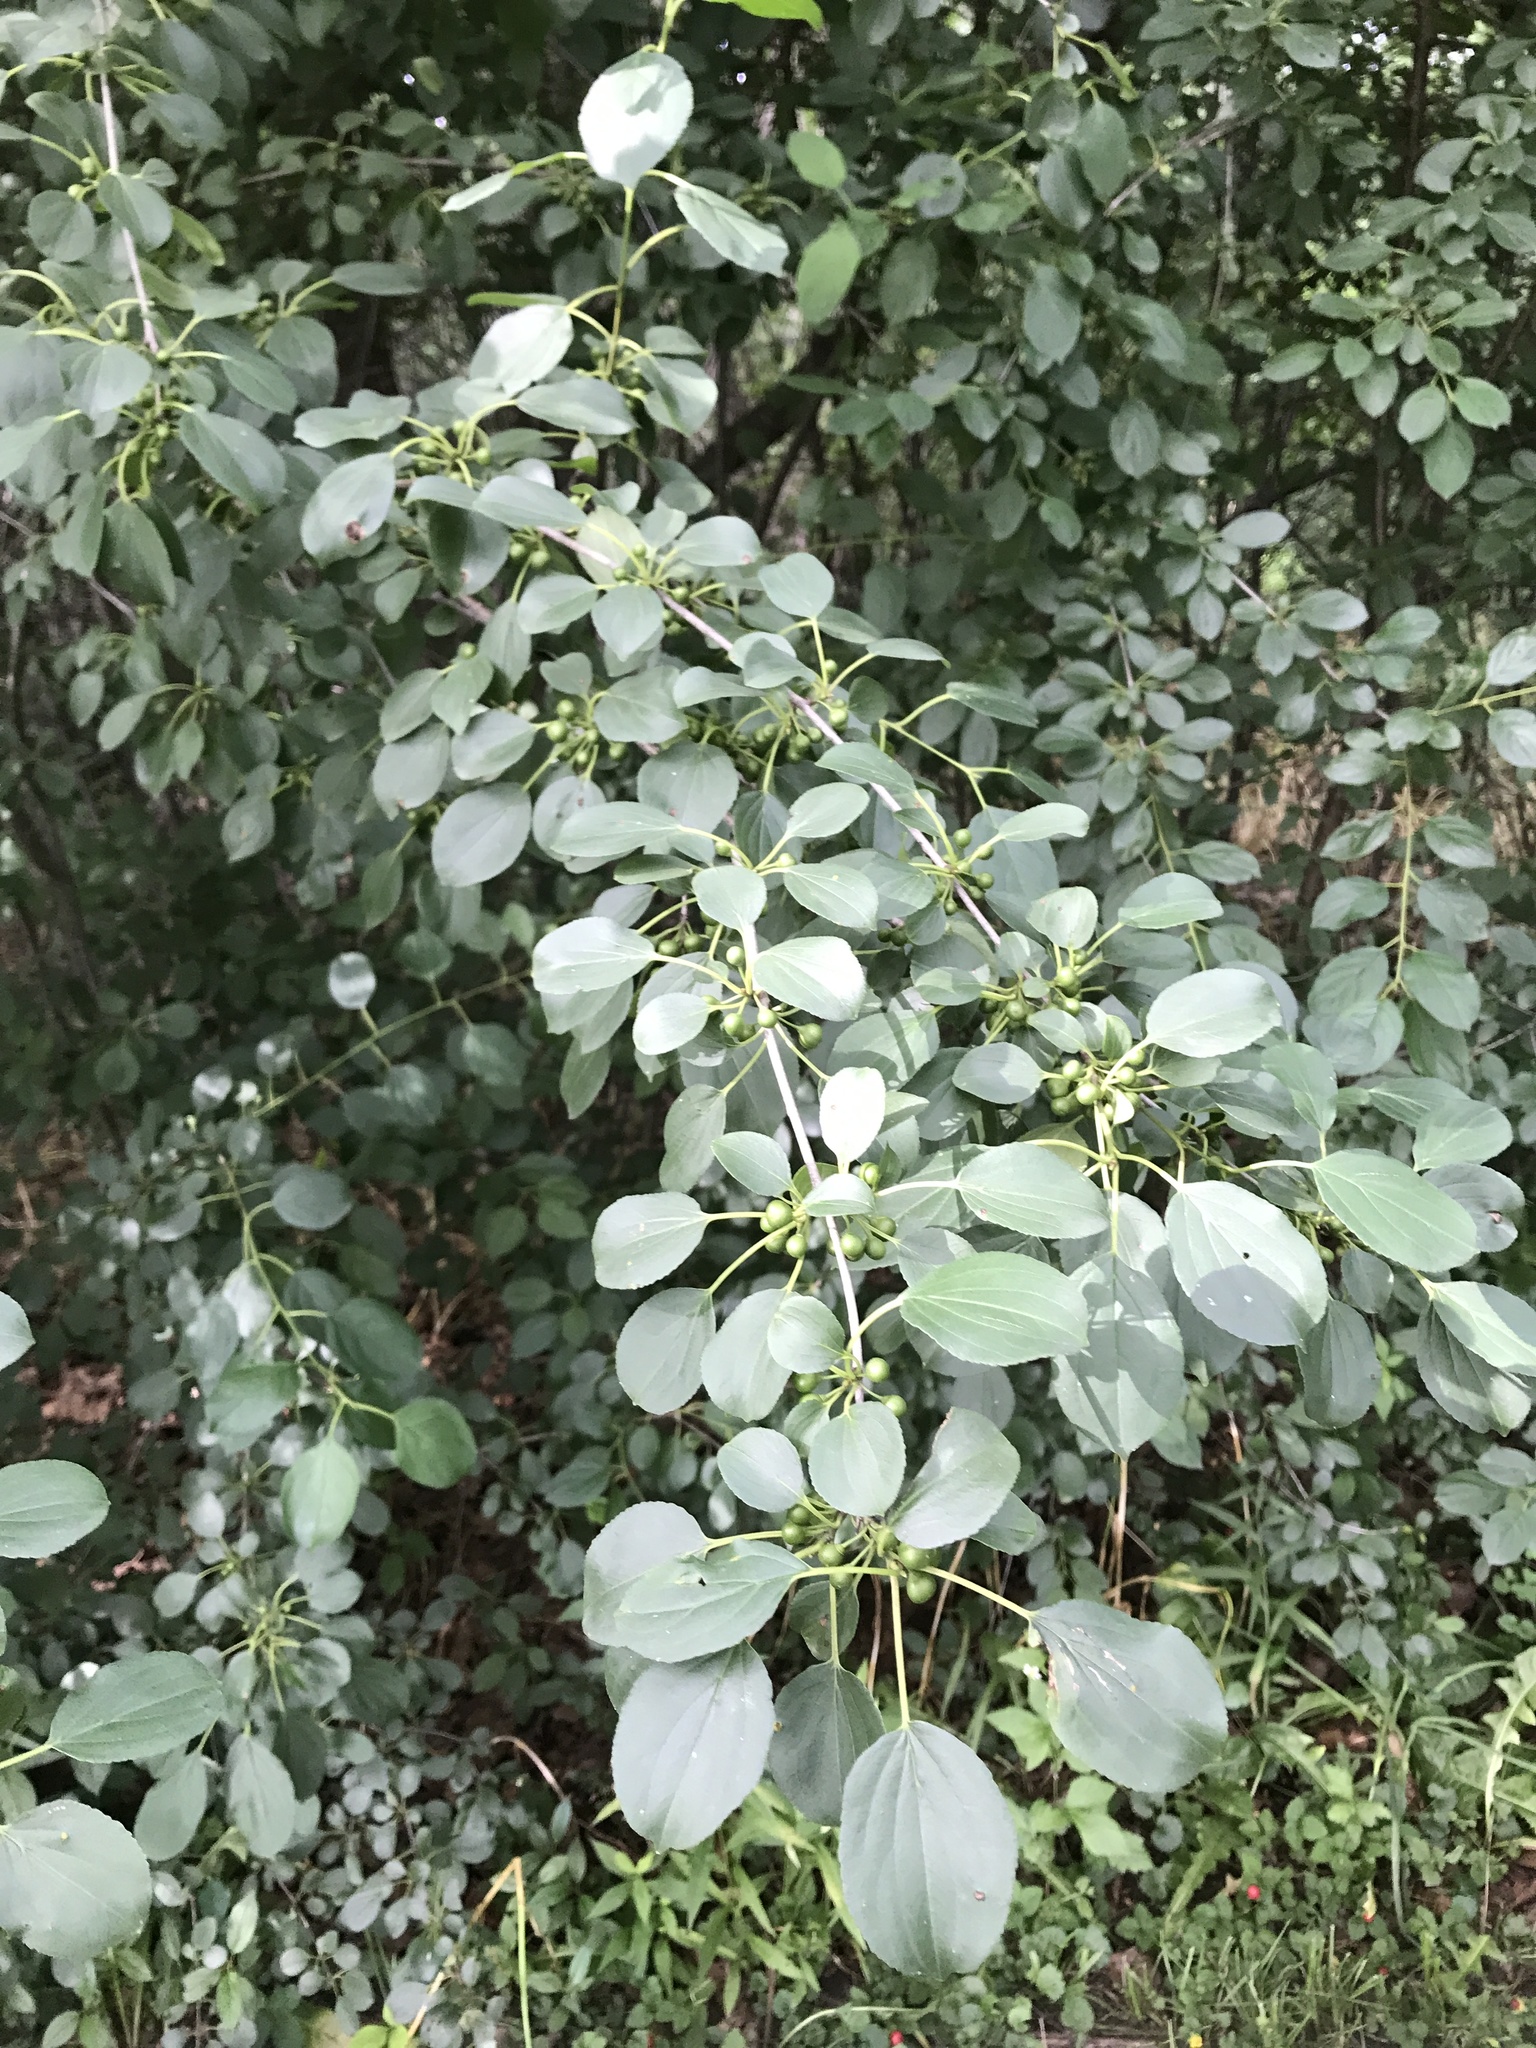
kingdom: Plantae
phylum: Tracheophyta
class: Magnoliopsida
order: Rosales
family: Rhamnaceae
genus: Rhamnus
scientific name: Rhamnus cathartica
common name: Common buckthorn
